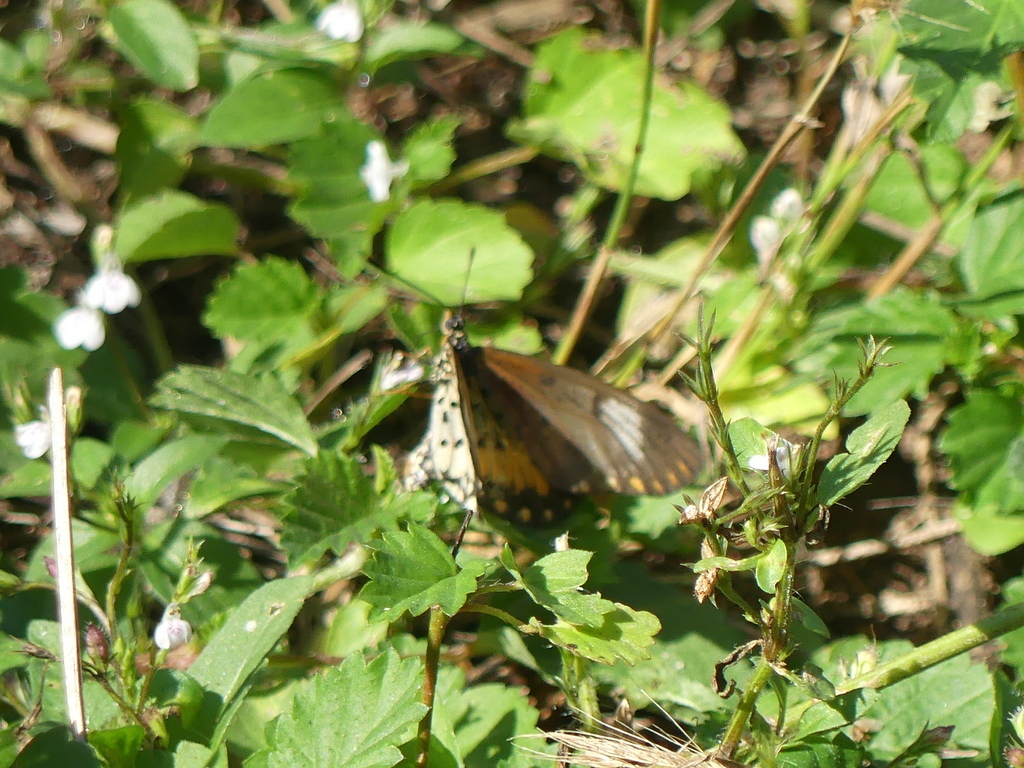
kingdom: Animalia
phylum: Arthropoda
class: Insecta
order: Lepidoptera
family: Nymphalidae
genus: Acraea
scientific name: Acraea Telchinia serena
